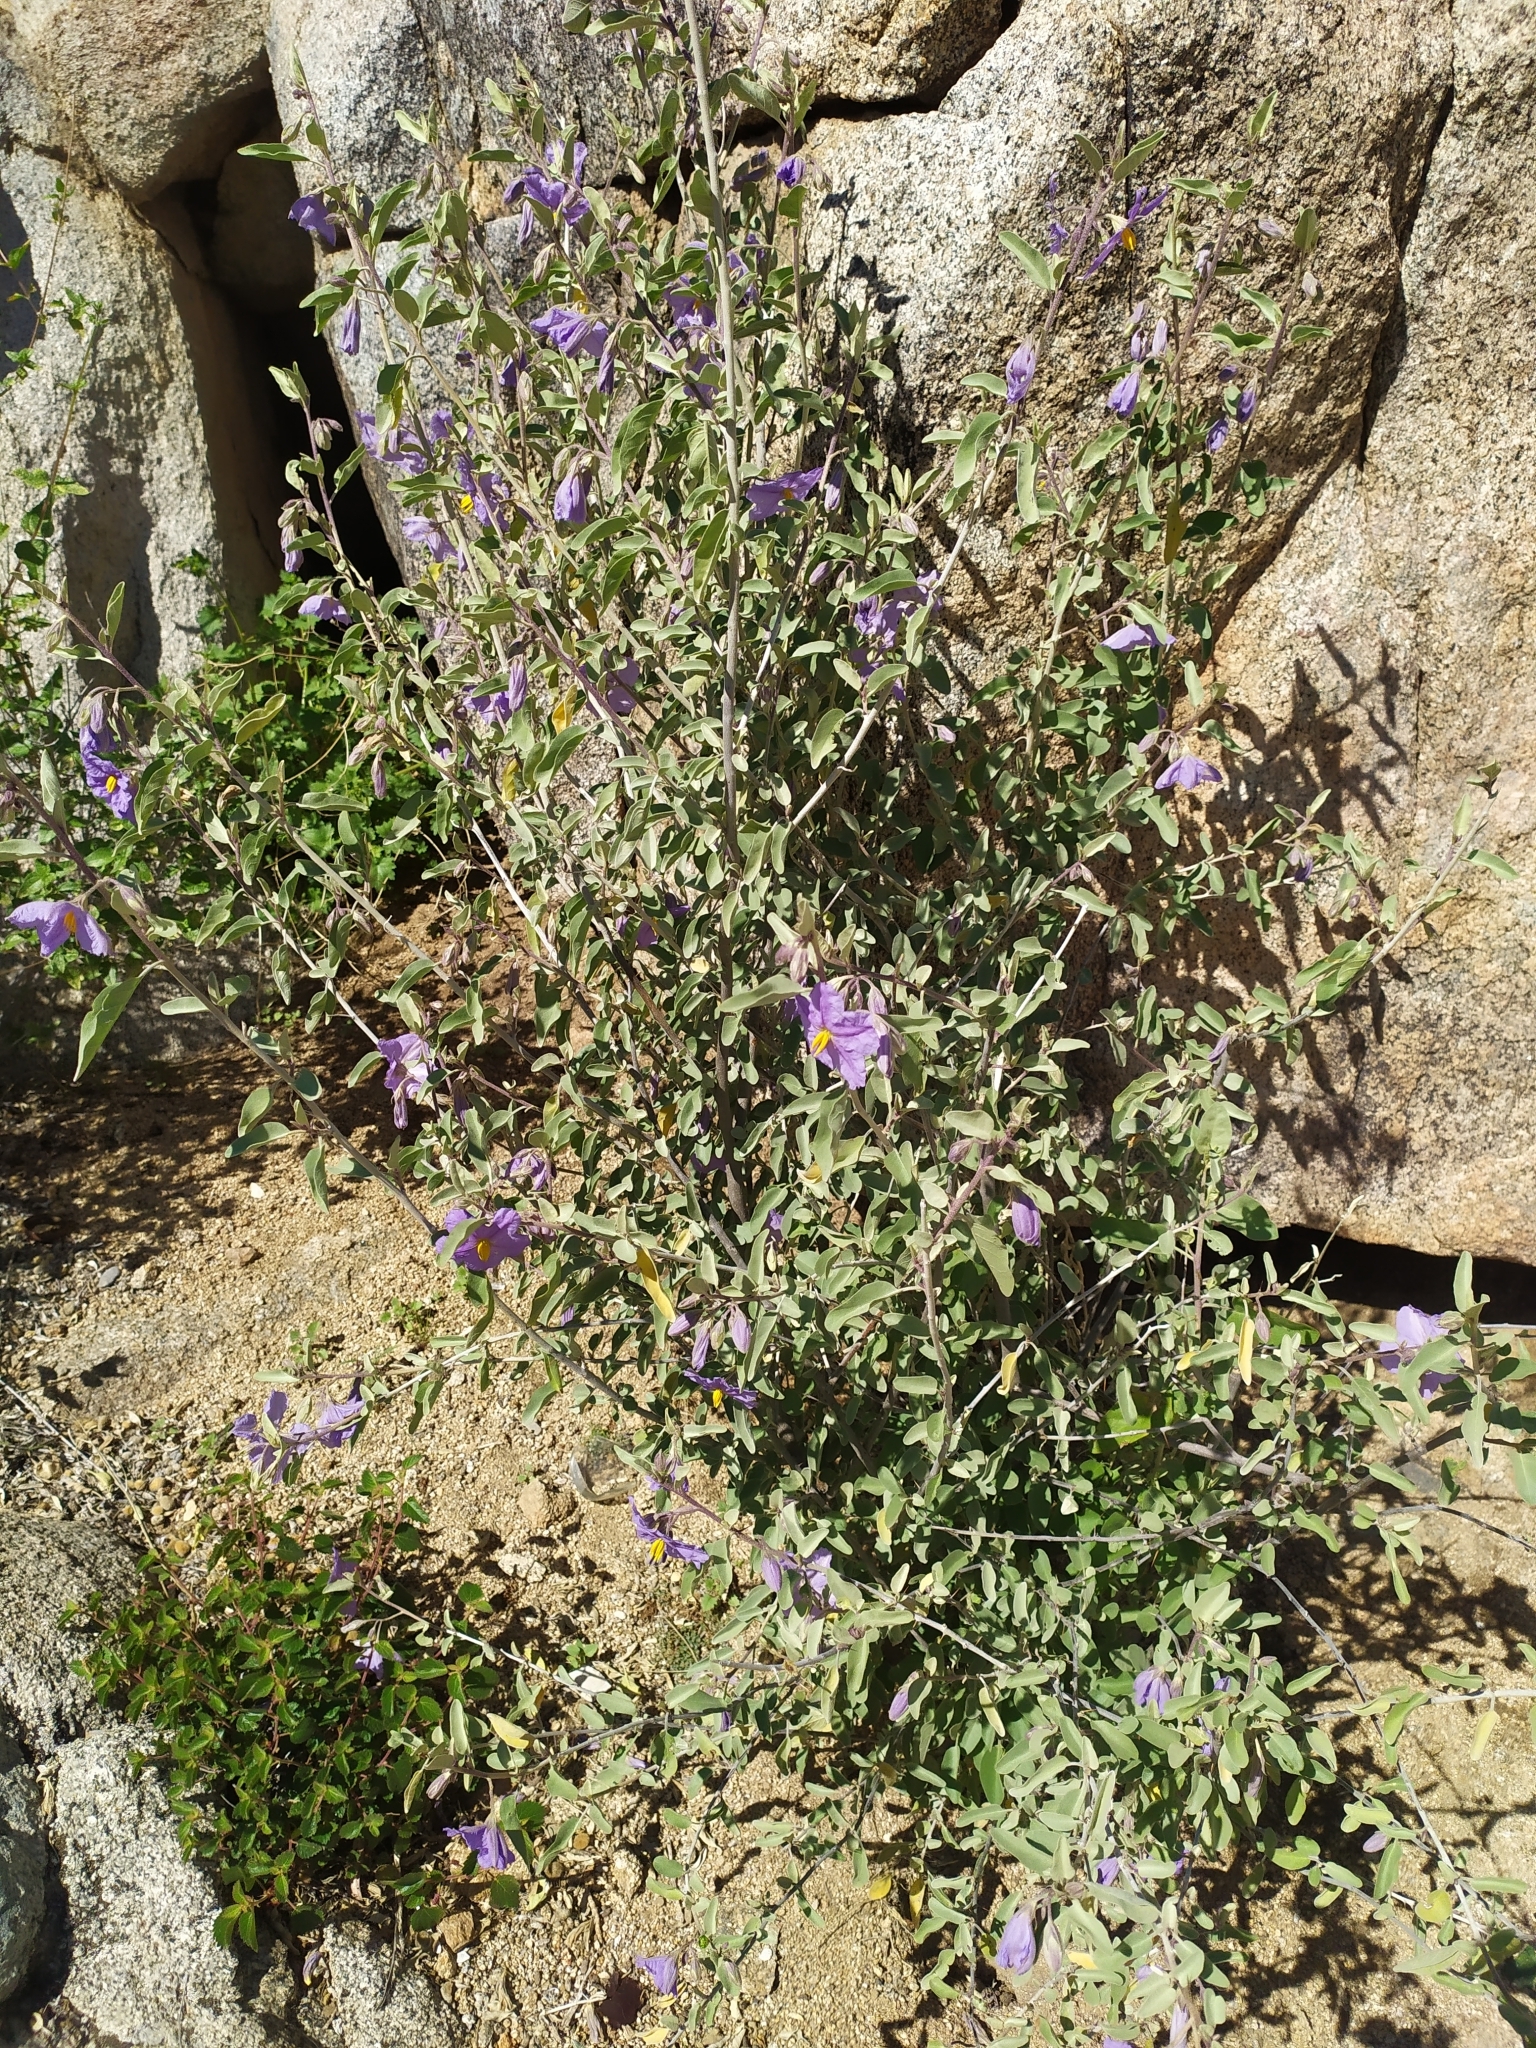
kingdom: Plantae
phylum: Tracheophyta
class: Magnoliopsida
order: Solanales
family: Solanaceae
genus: Solanum
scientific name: Solanum hindsianum
